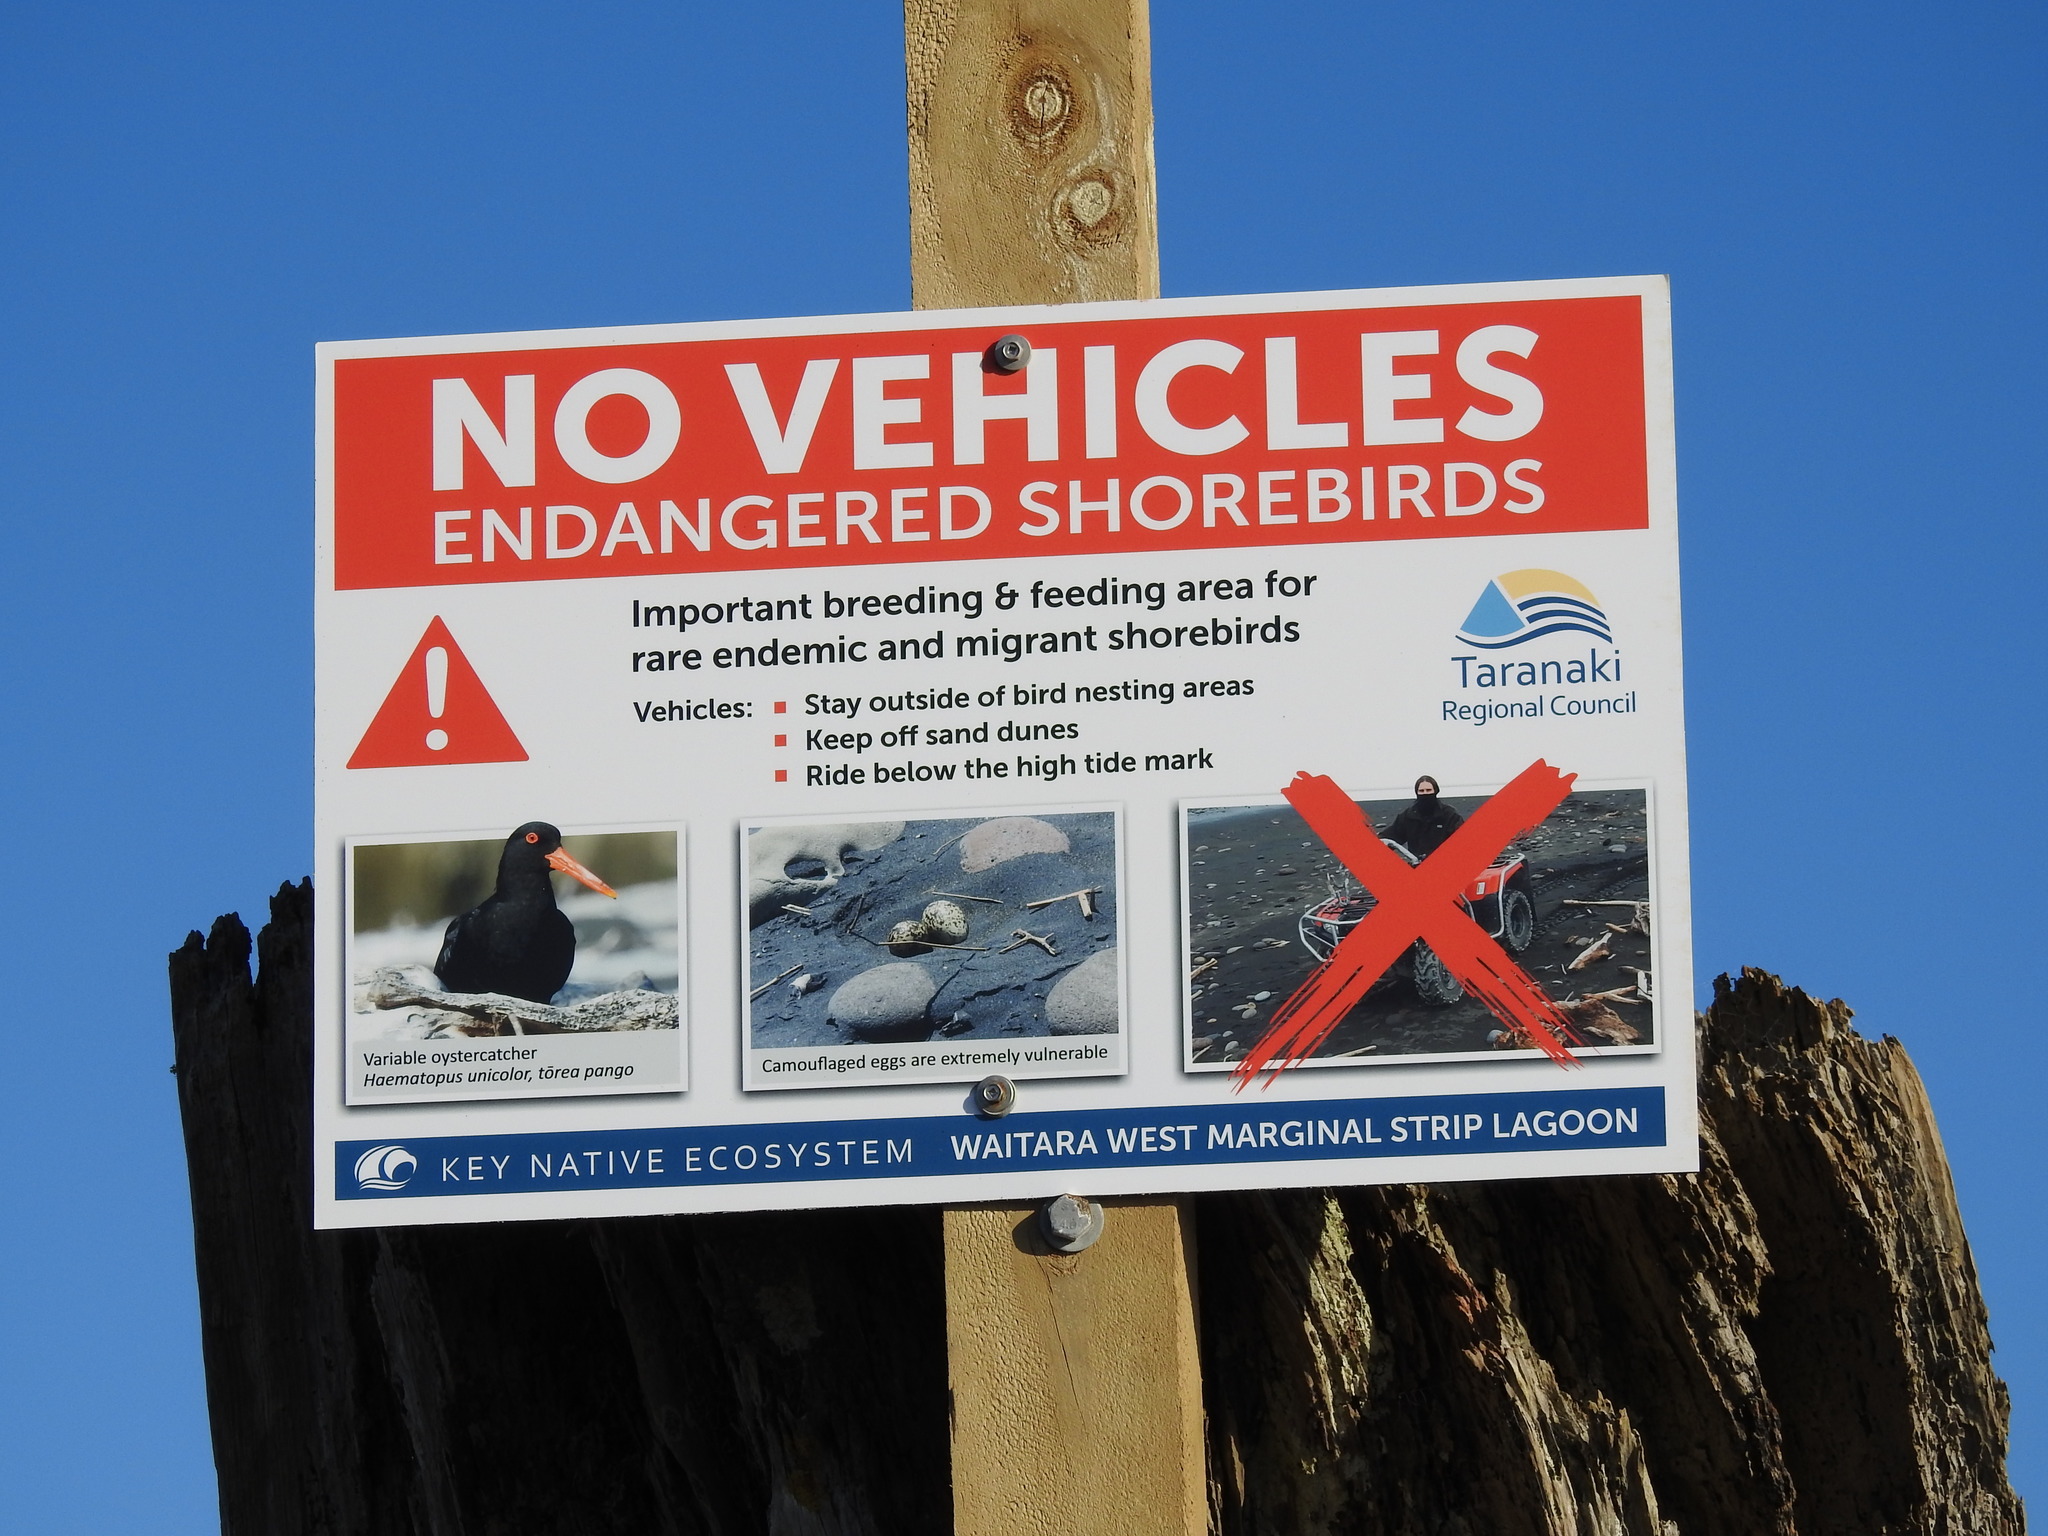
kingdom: Animalia
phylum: Chordata
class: Aves
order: Charadriiformes
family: Haematopodidae
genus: Haematopus
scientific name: Haematopus unicolor
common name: Variable oystercatcher
